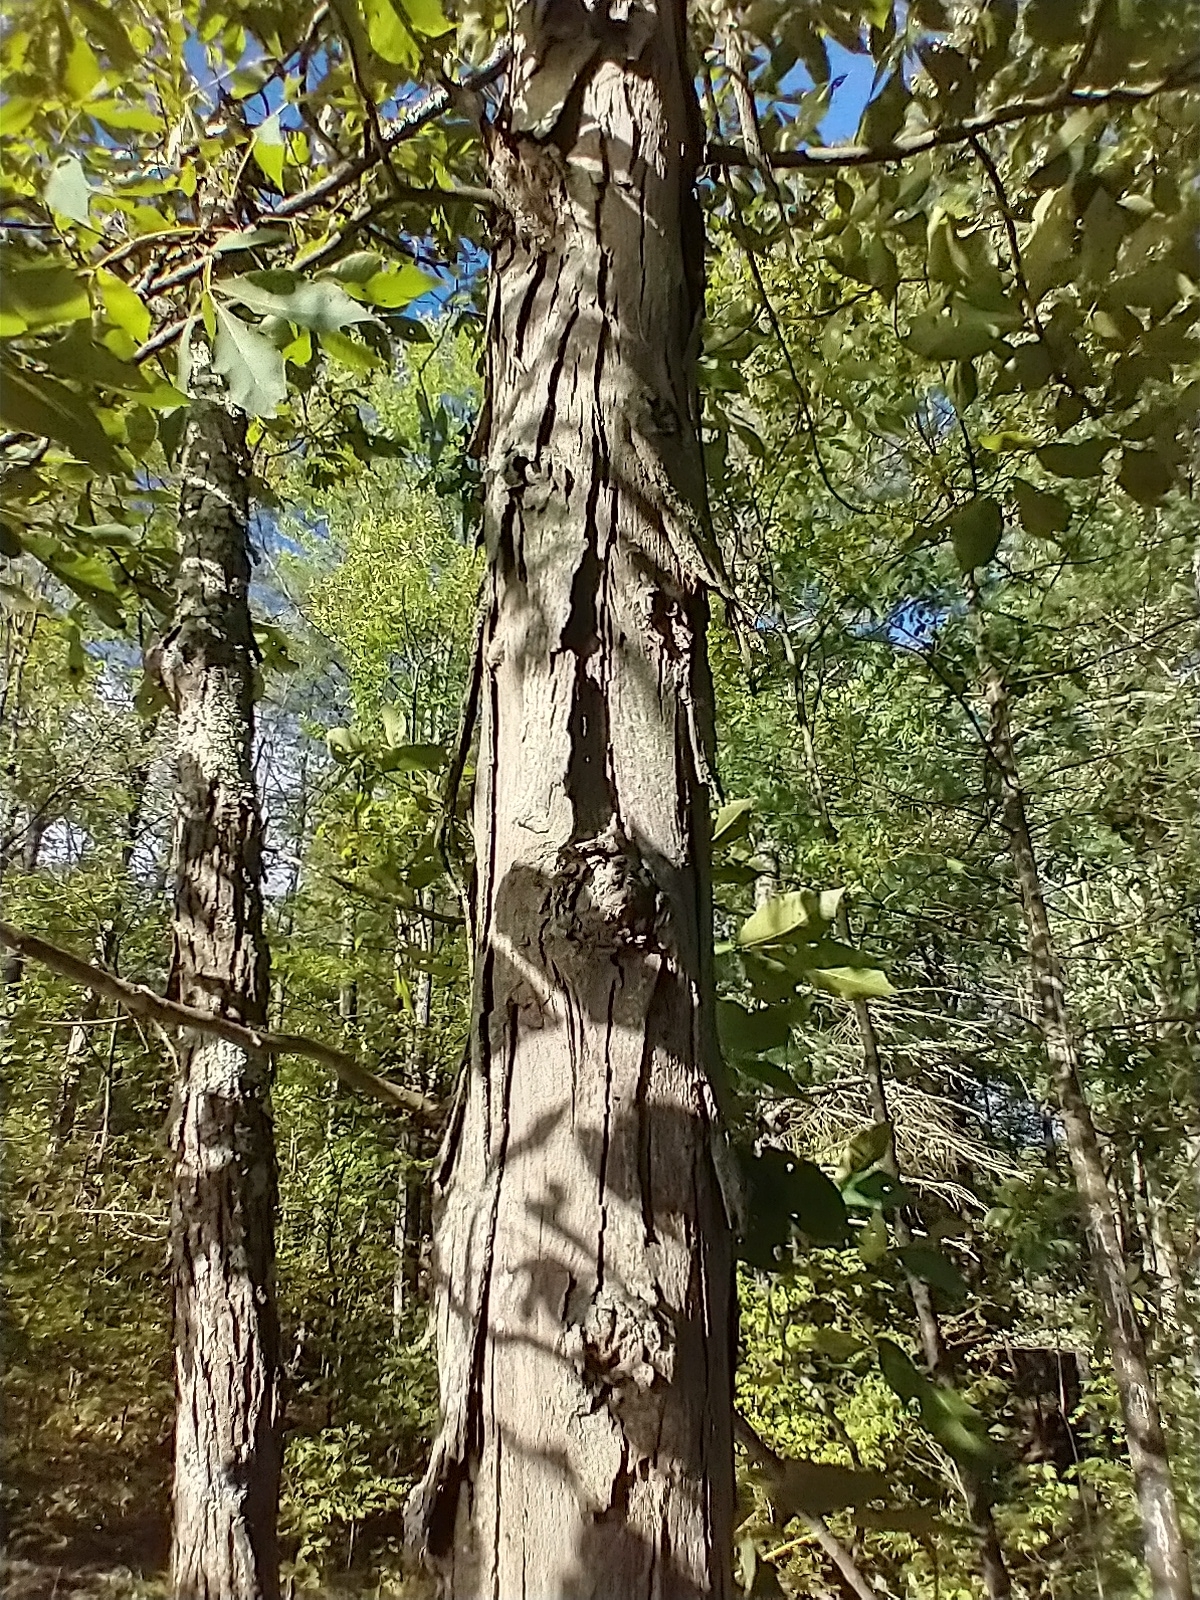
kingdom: Plantae
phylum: Tracheophyta
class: Magnoliopsida
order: Fagales
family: Juglandaceae
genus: Carya
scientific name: Carya ovata
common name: Shagbark hickory
